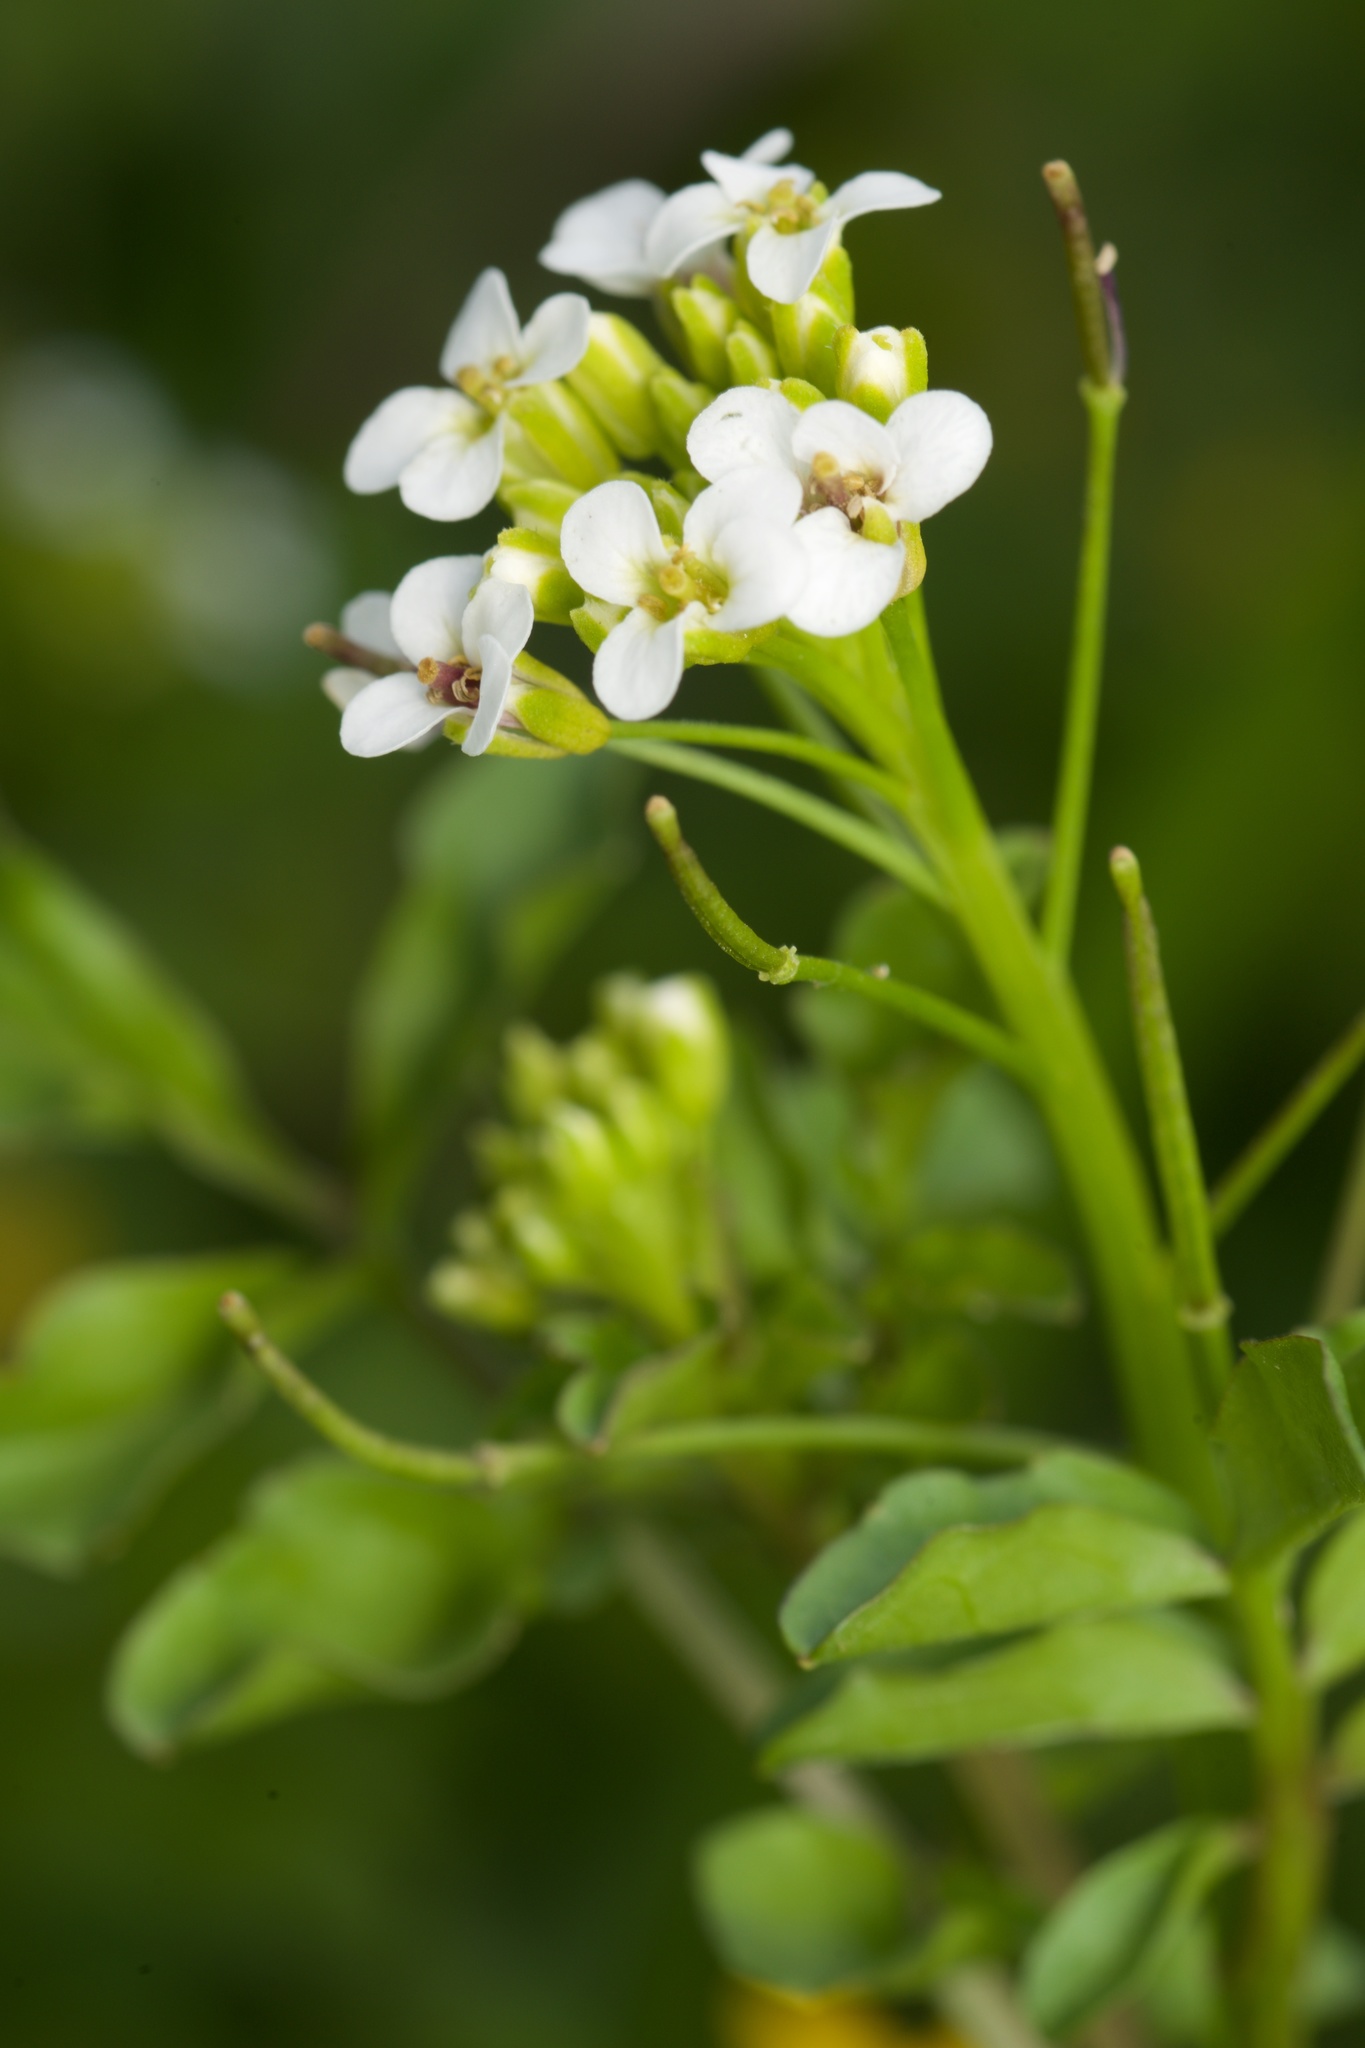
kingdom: Plantae
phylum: Tracheophyta
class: Magnoliopsida
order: Brassicales
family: Brassicaceae
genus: Nasturtium
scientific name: Nasturtium officinale
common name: Watercress
